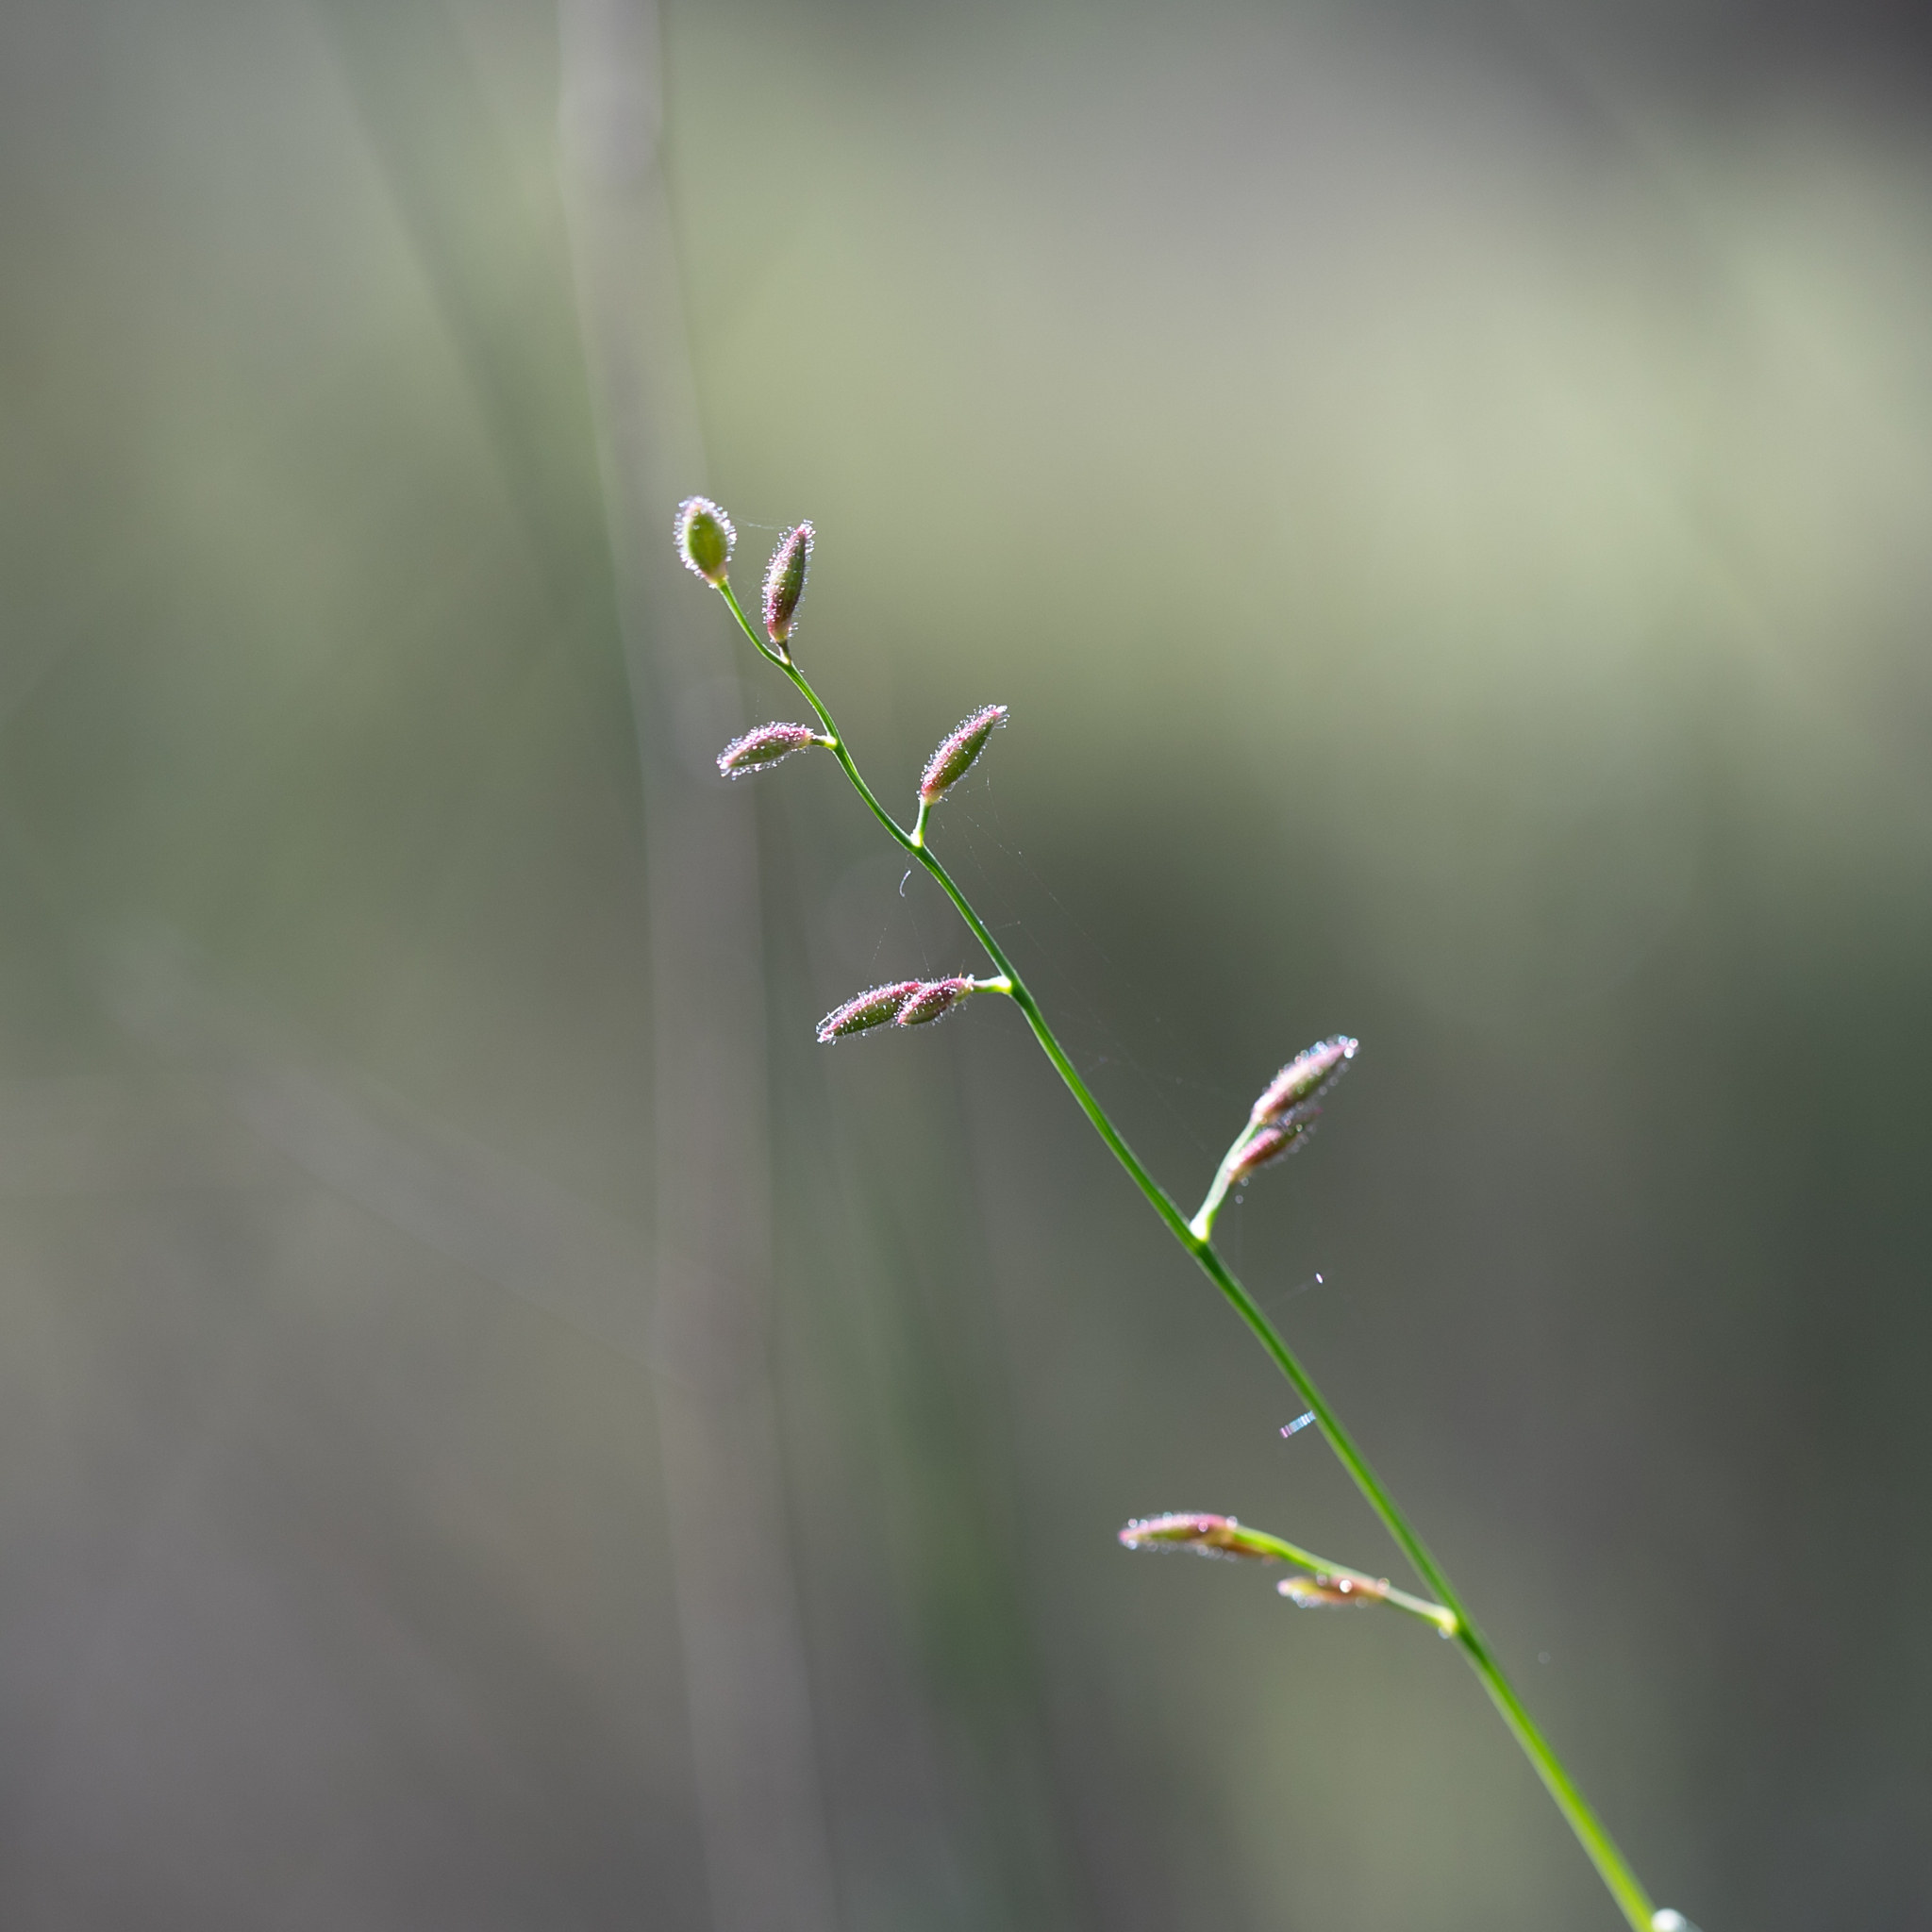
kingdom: Plantae
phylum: Tracheophyta
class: Liliopsida
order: Poales
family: Poaceae
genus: Ancistrachne
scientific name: Ancistrachne uncinulata
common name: Hooky grass
